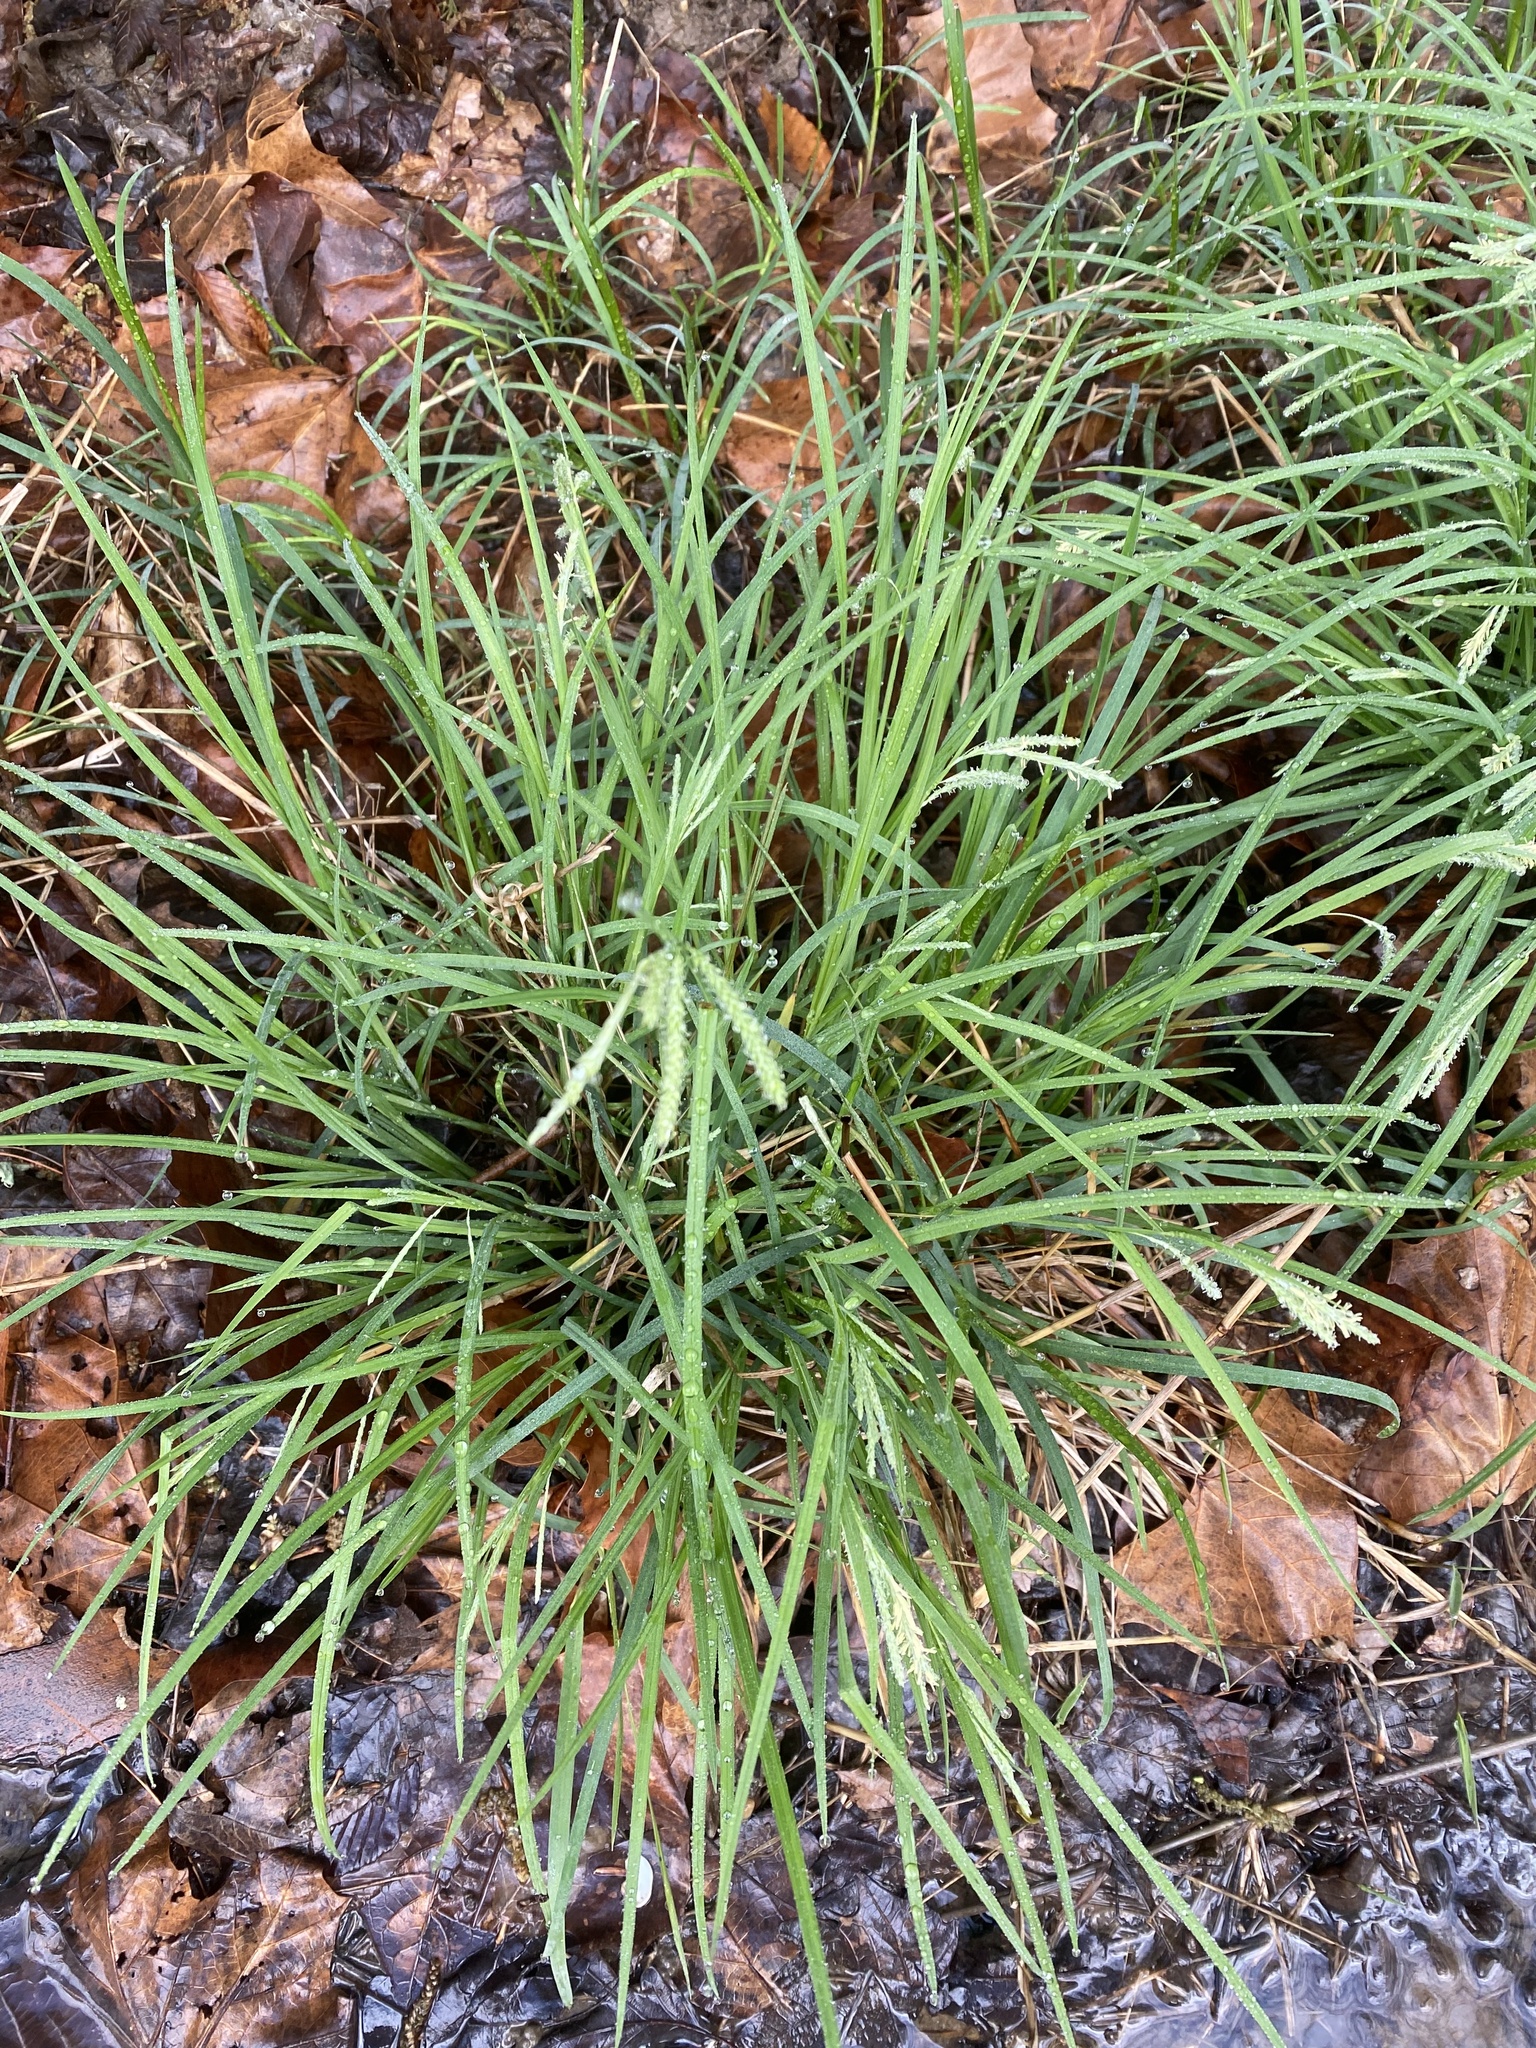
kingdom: Plantae
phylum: Tracheophyta
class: Liliopsida
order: Poales
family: Cyperaceae
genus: Carex
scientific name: Carex prasina
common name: Drooping sedge
